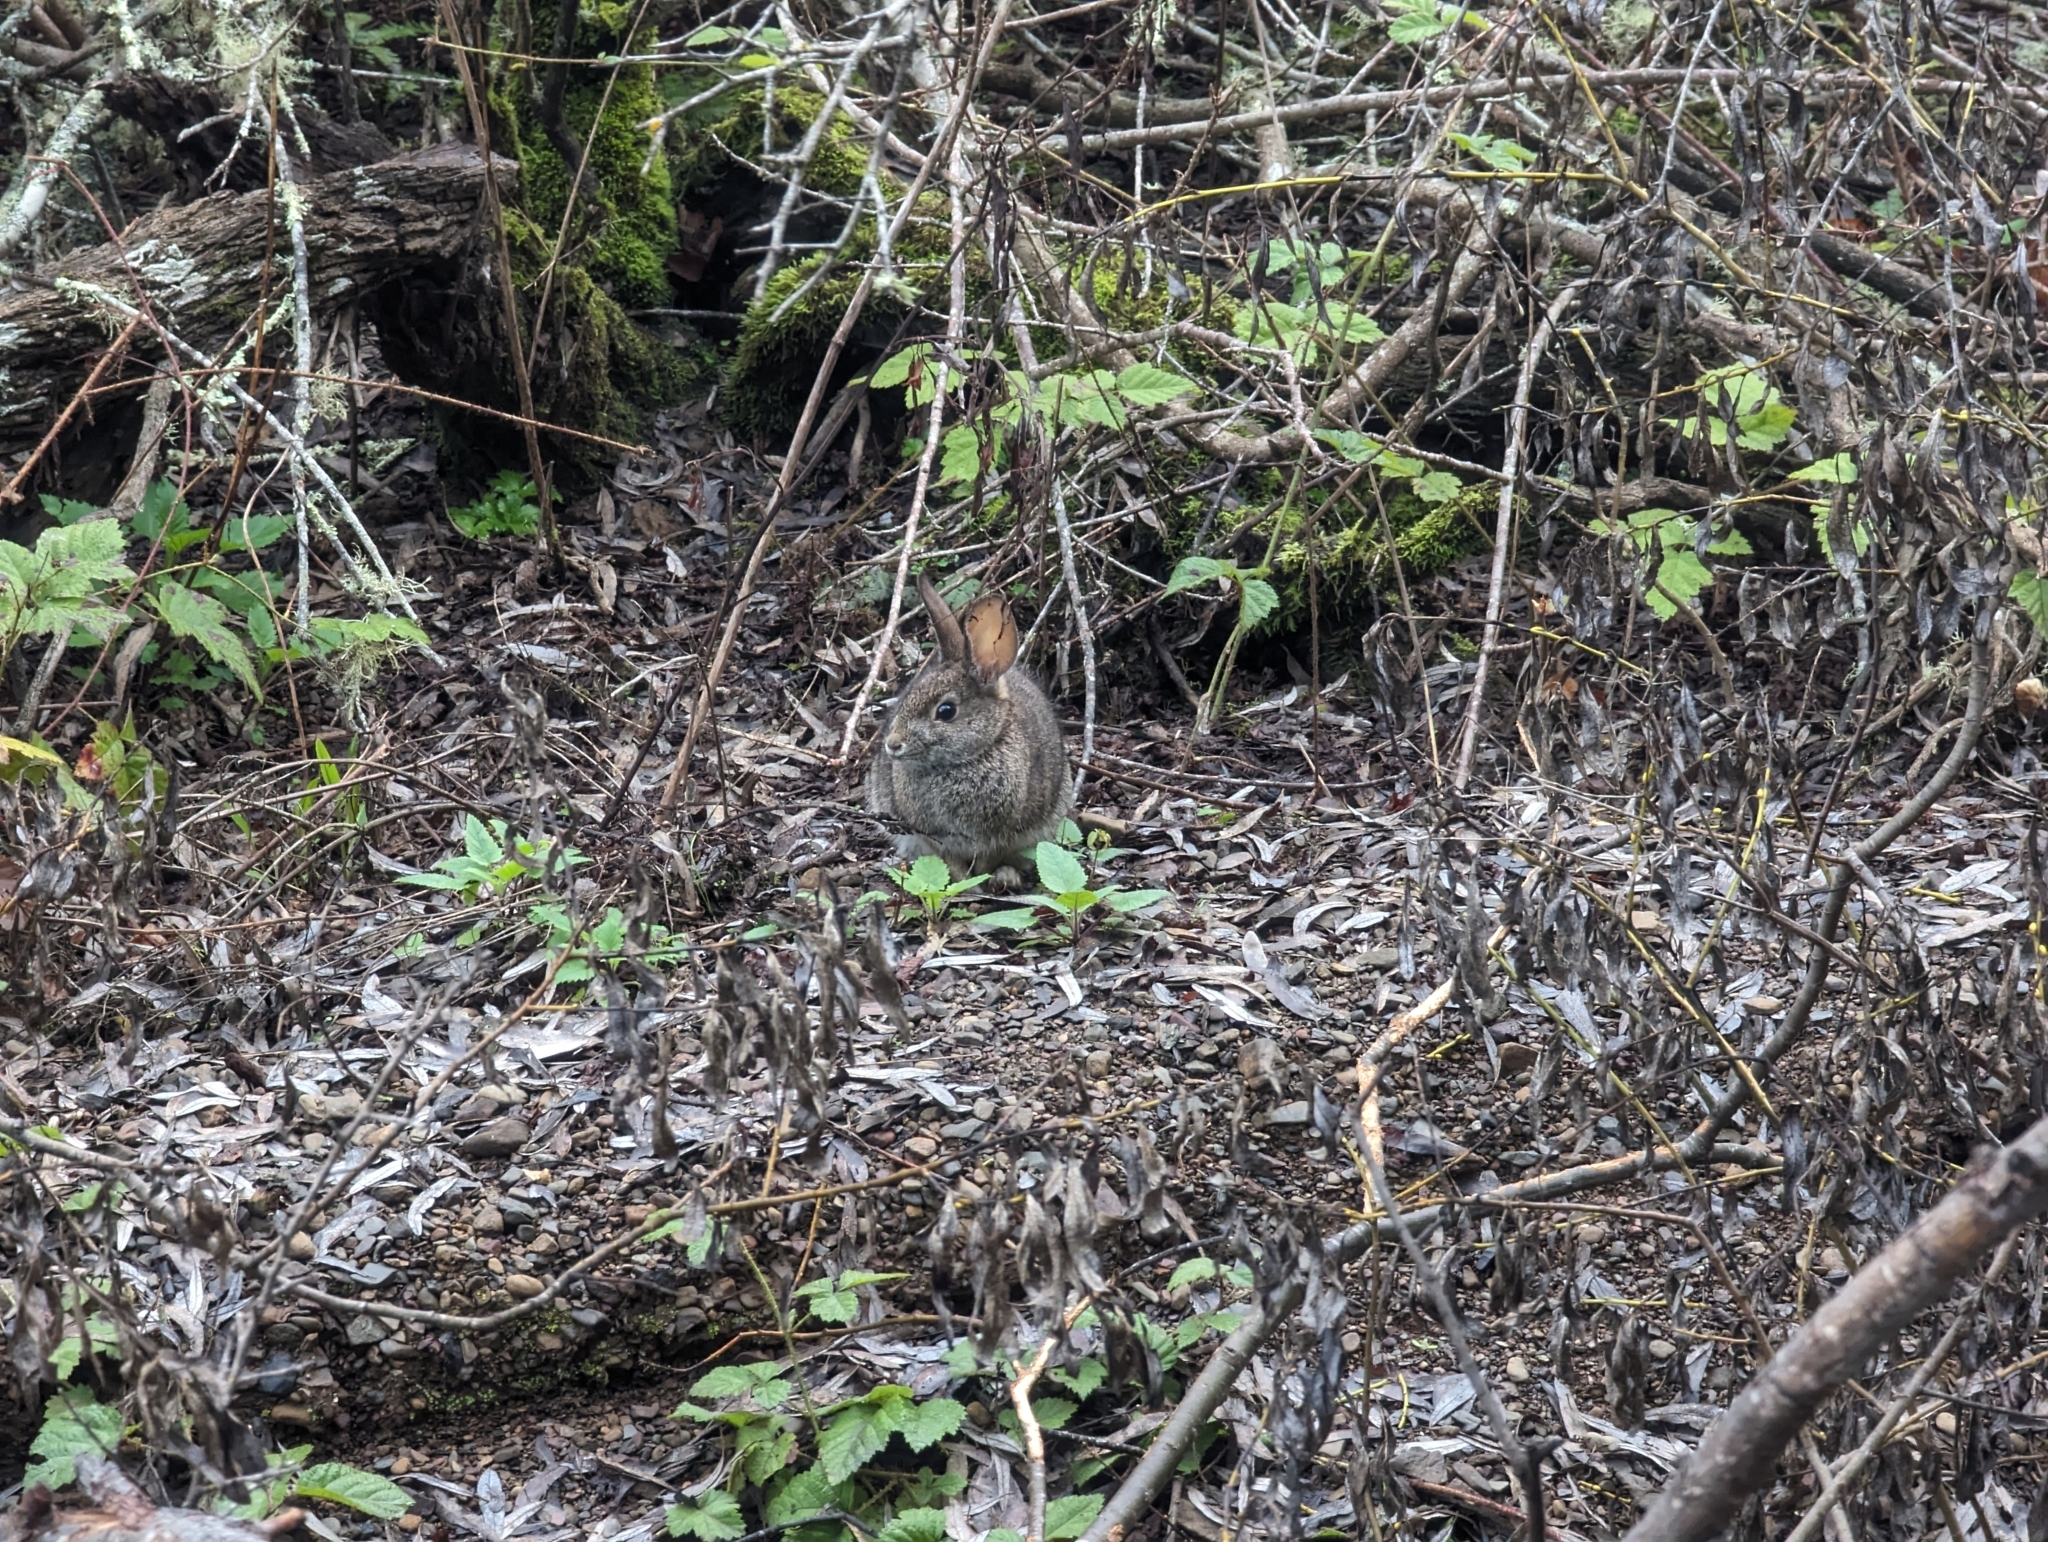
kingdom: Animalia
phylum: Chordata
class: Mammalia
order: Lagomorpha
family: Leporidae
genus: Sylvilagus
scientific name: Sylvilagus bachmani
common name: Brush rabbit
